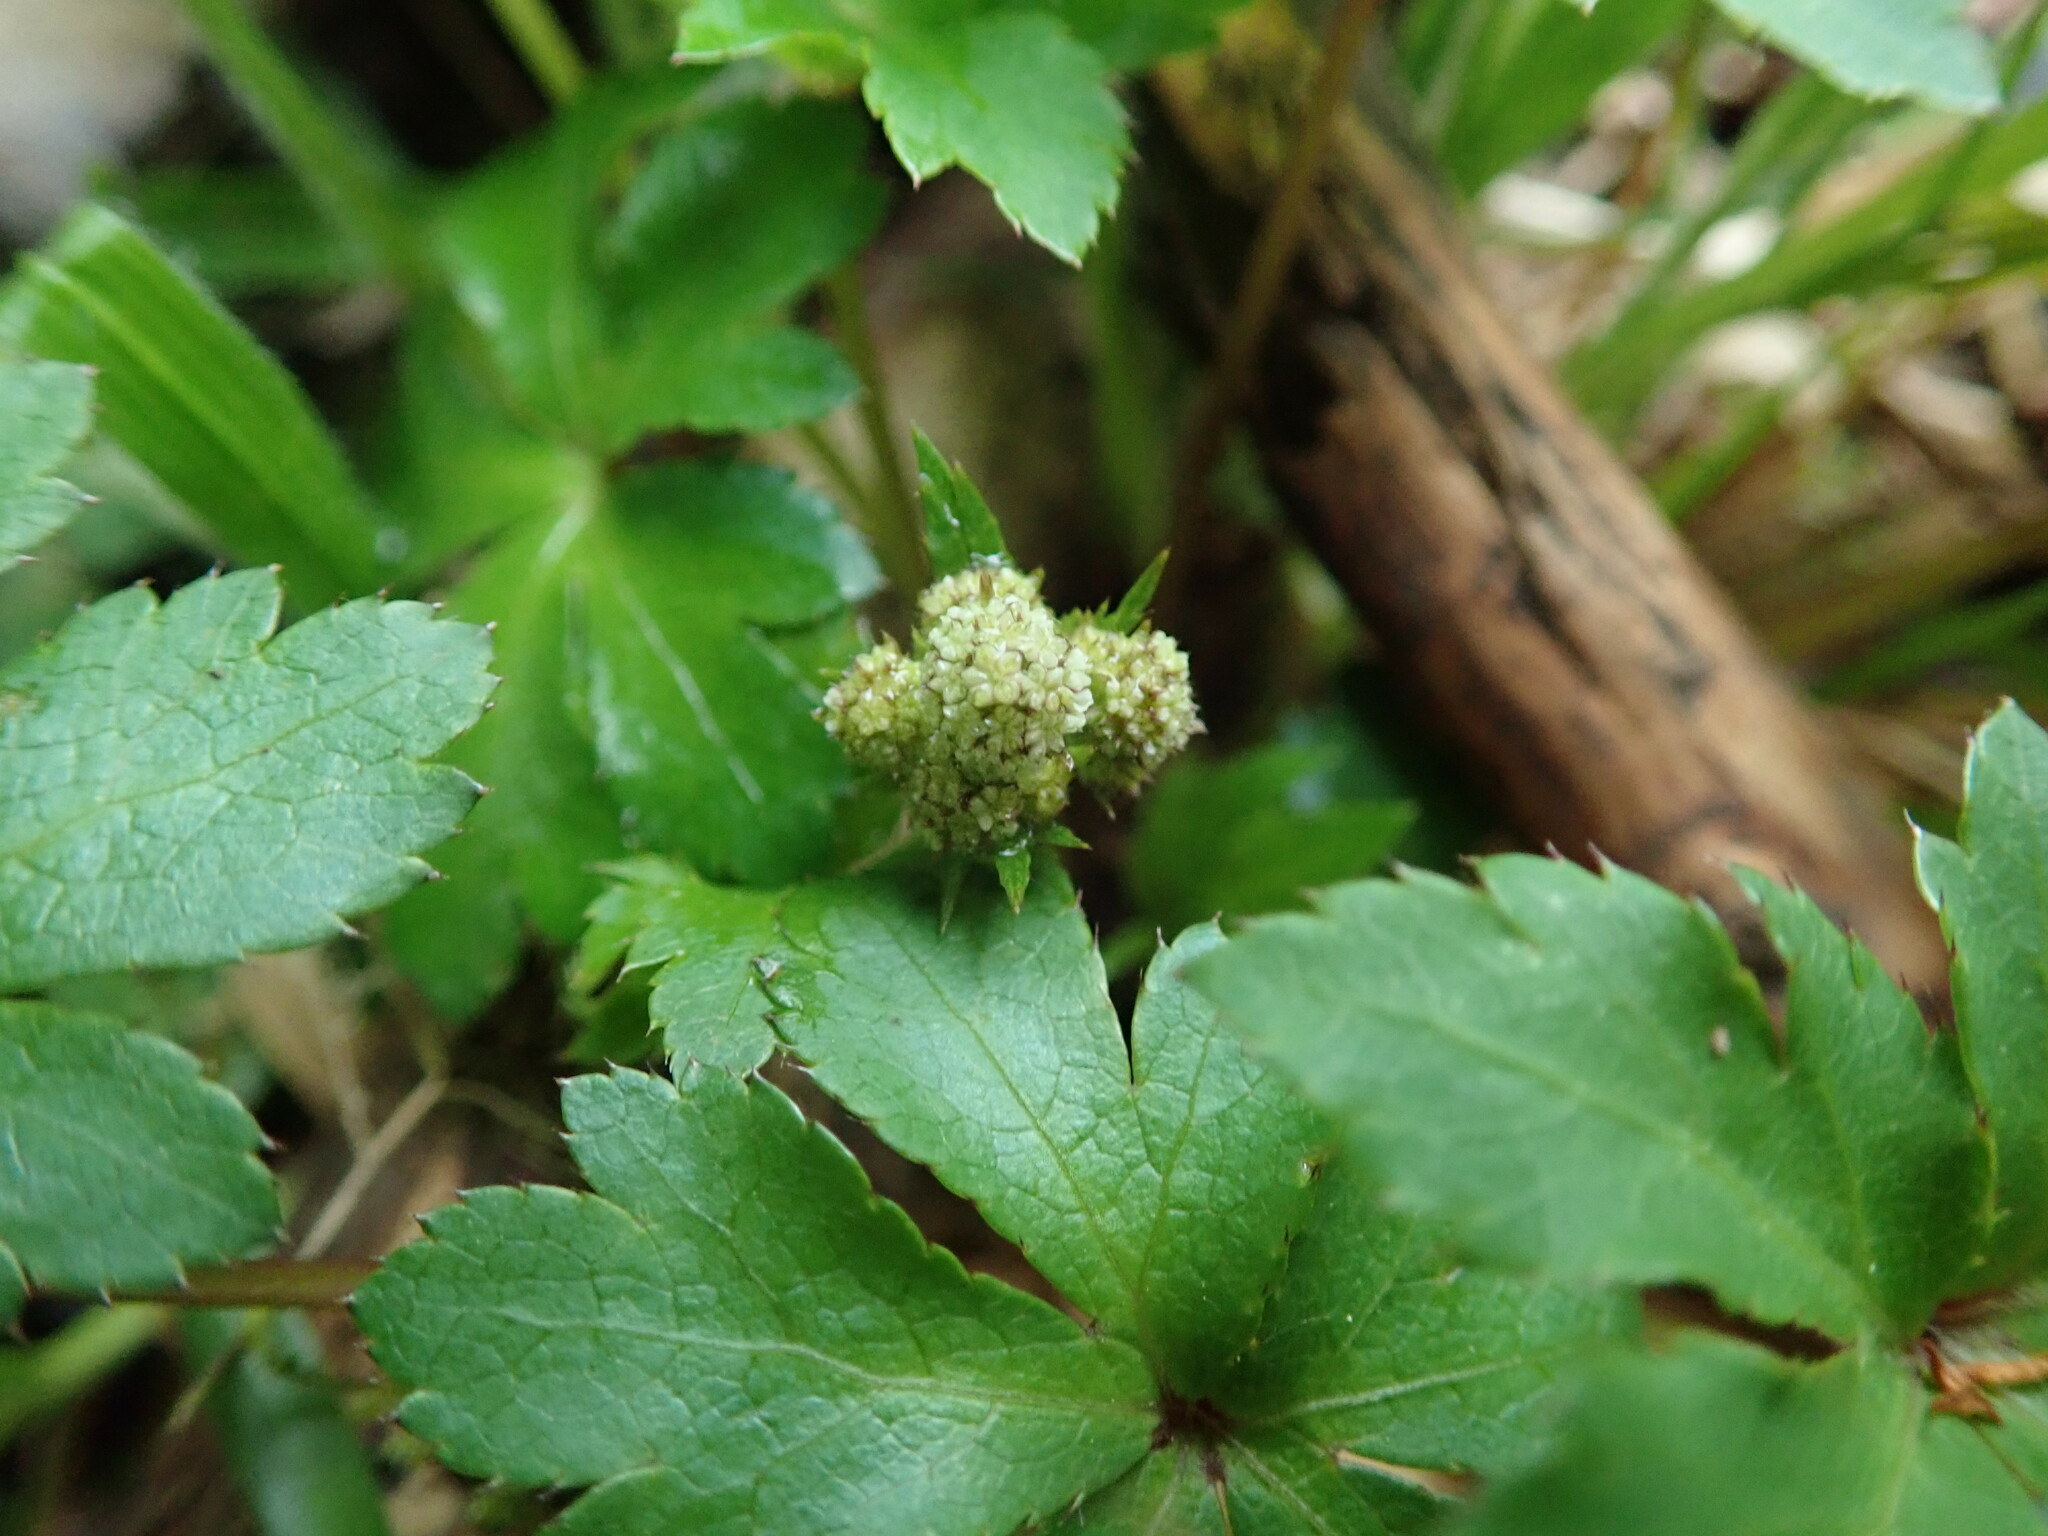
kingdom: Plantae
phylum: Tracheophyta
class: Magnoliopsida
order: Apiales
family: Apiaceae
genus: Sanicula
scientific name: Sanicula europaea
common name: Sanicle
